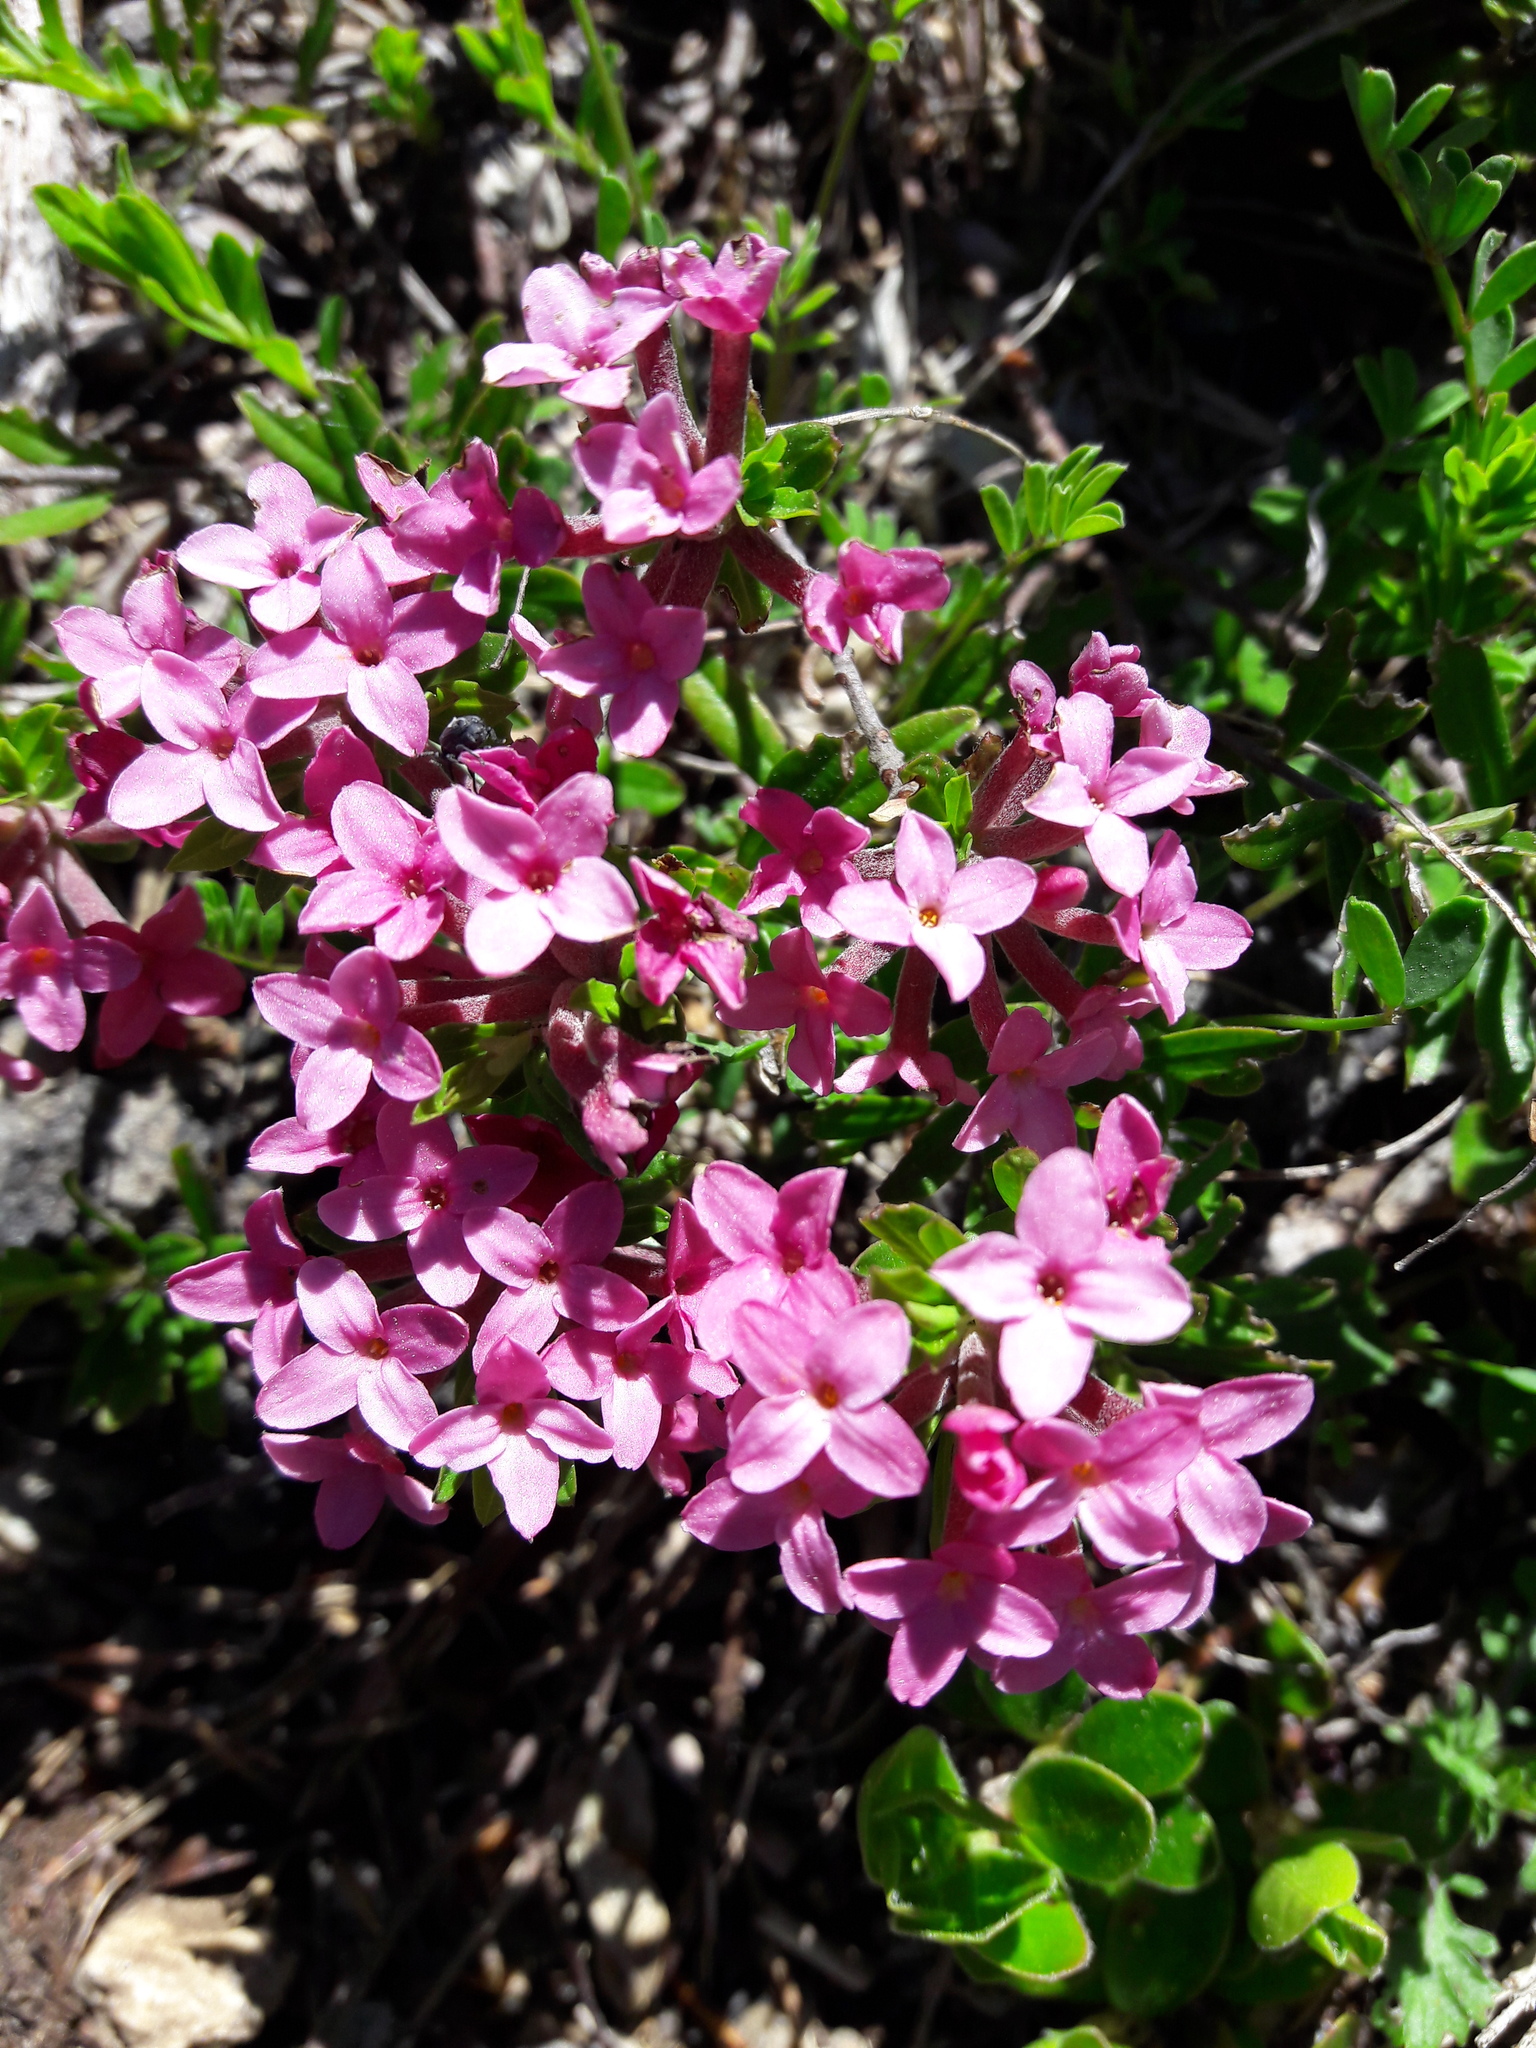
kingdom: Plantae
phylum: Tracheophyta
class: Magnoliopsida
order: Malvales
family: Thymelaeaceae
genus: Daphne
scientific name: Daphne cneorum
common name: Garland-flower
